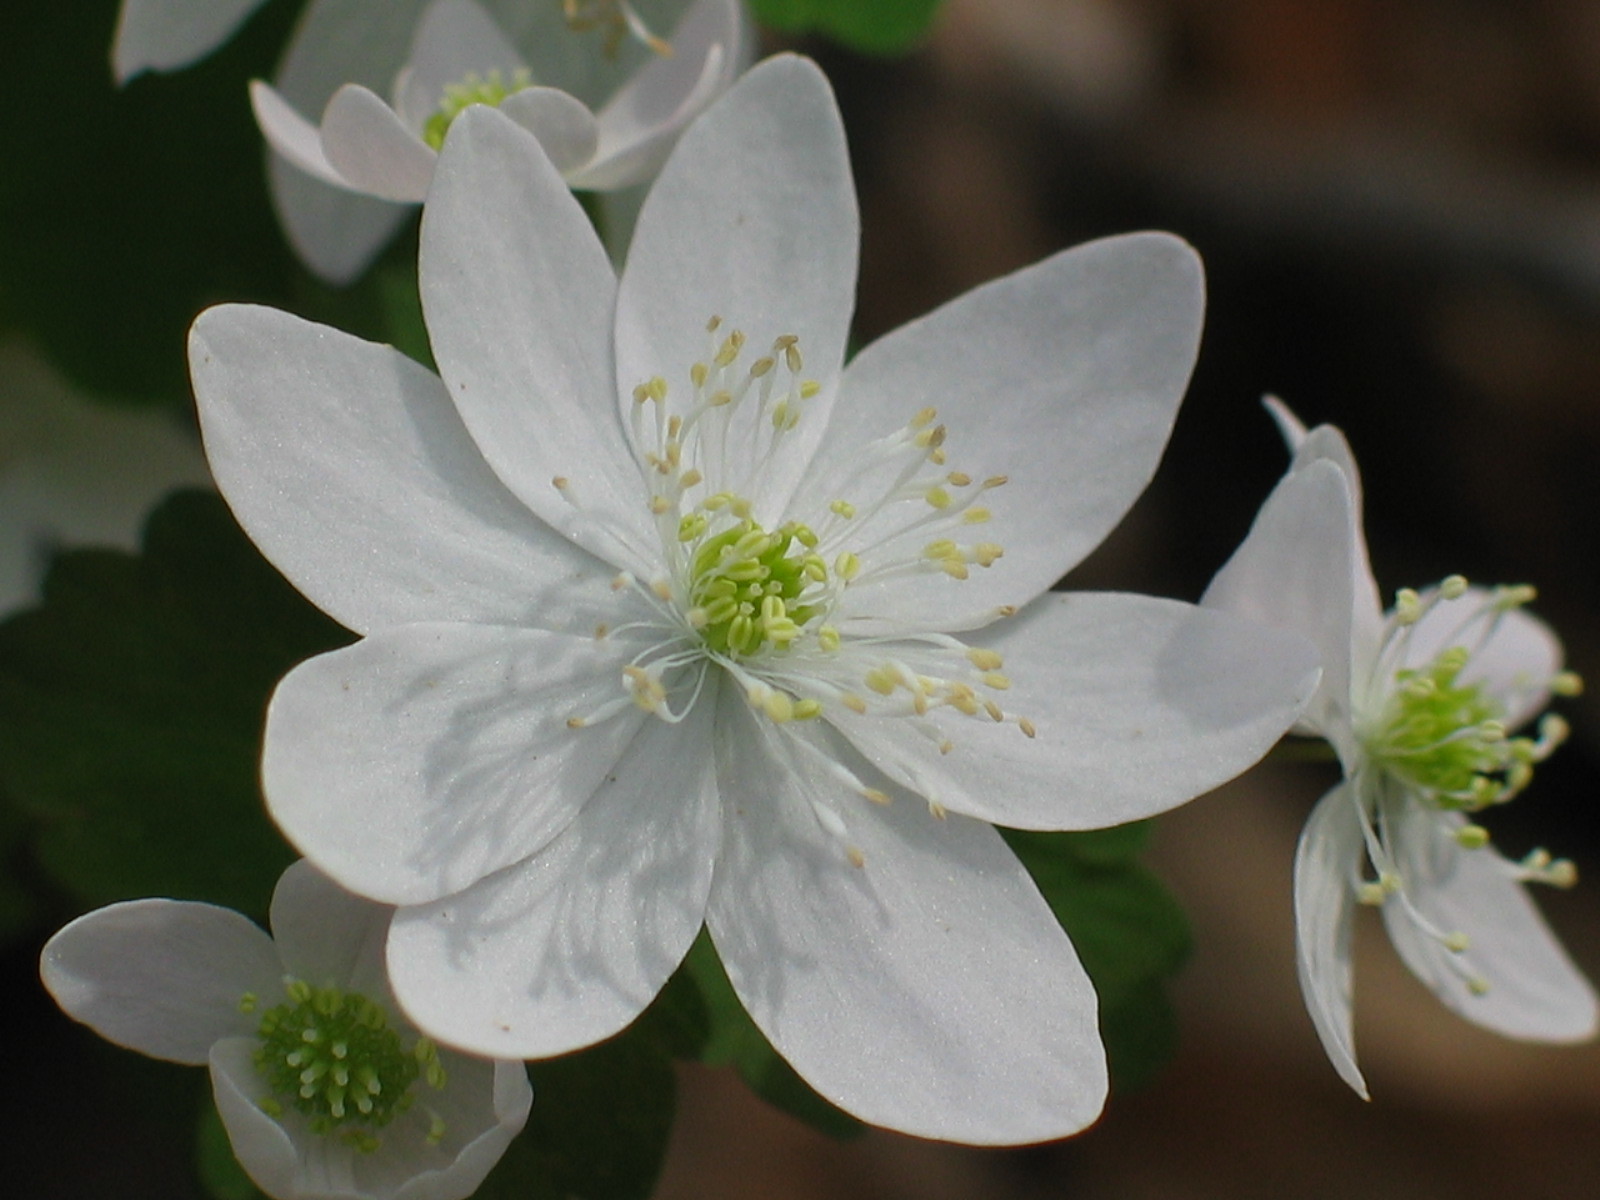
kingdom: Plantae
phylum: Tracheophyta
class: Magnoliopsida
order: Ranunculales
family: Ranunculaceae
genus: Thalictrum
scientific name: Thalictrum thalictroides
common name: Rue-anemone
